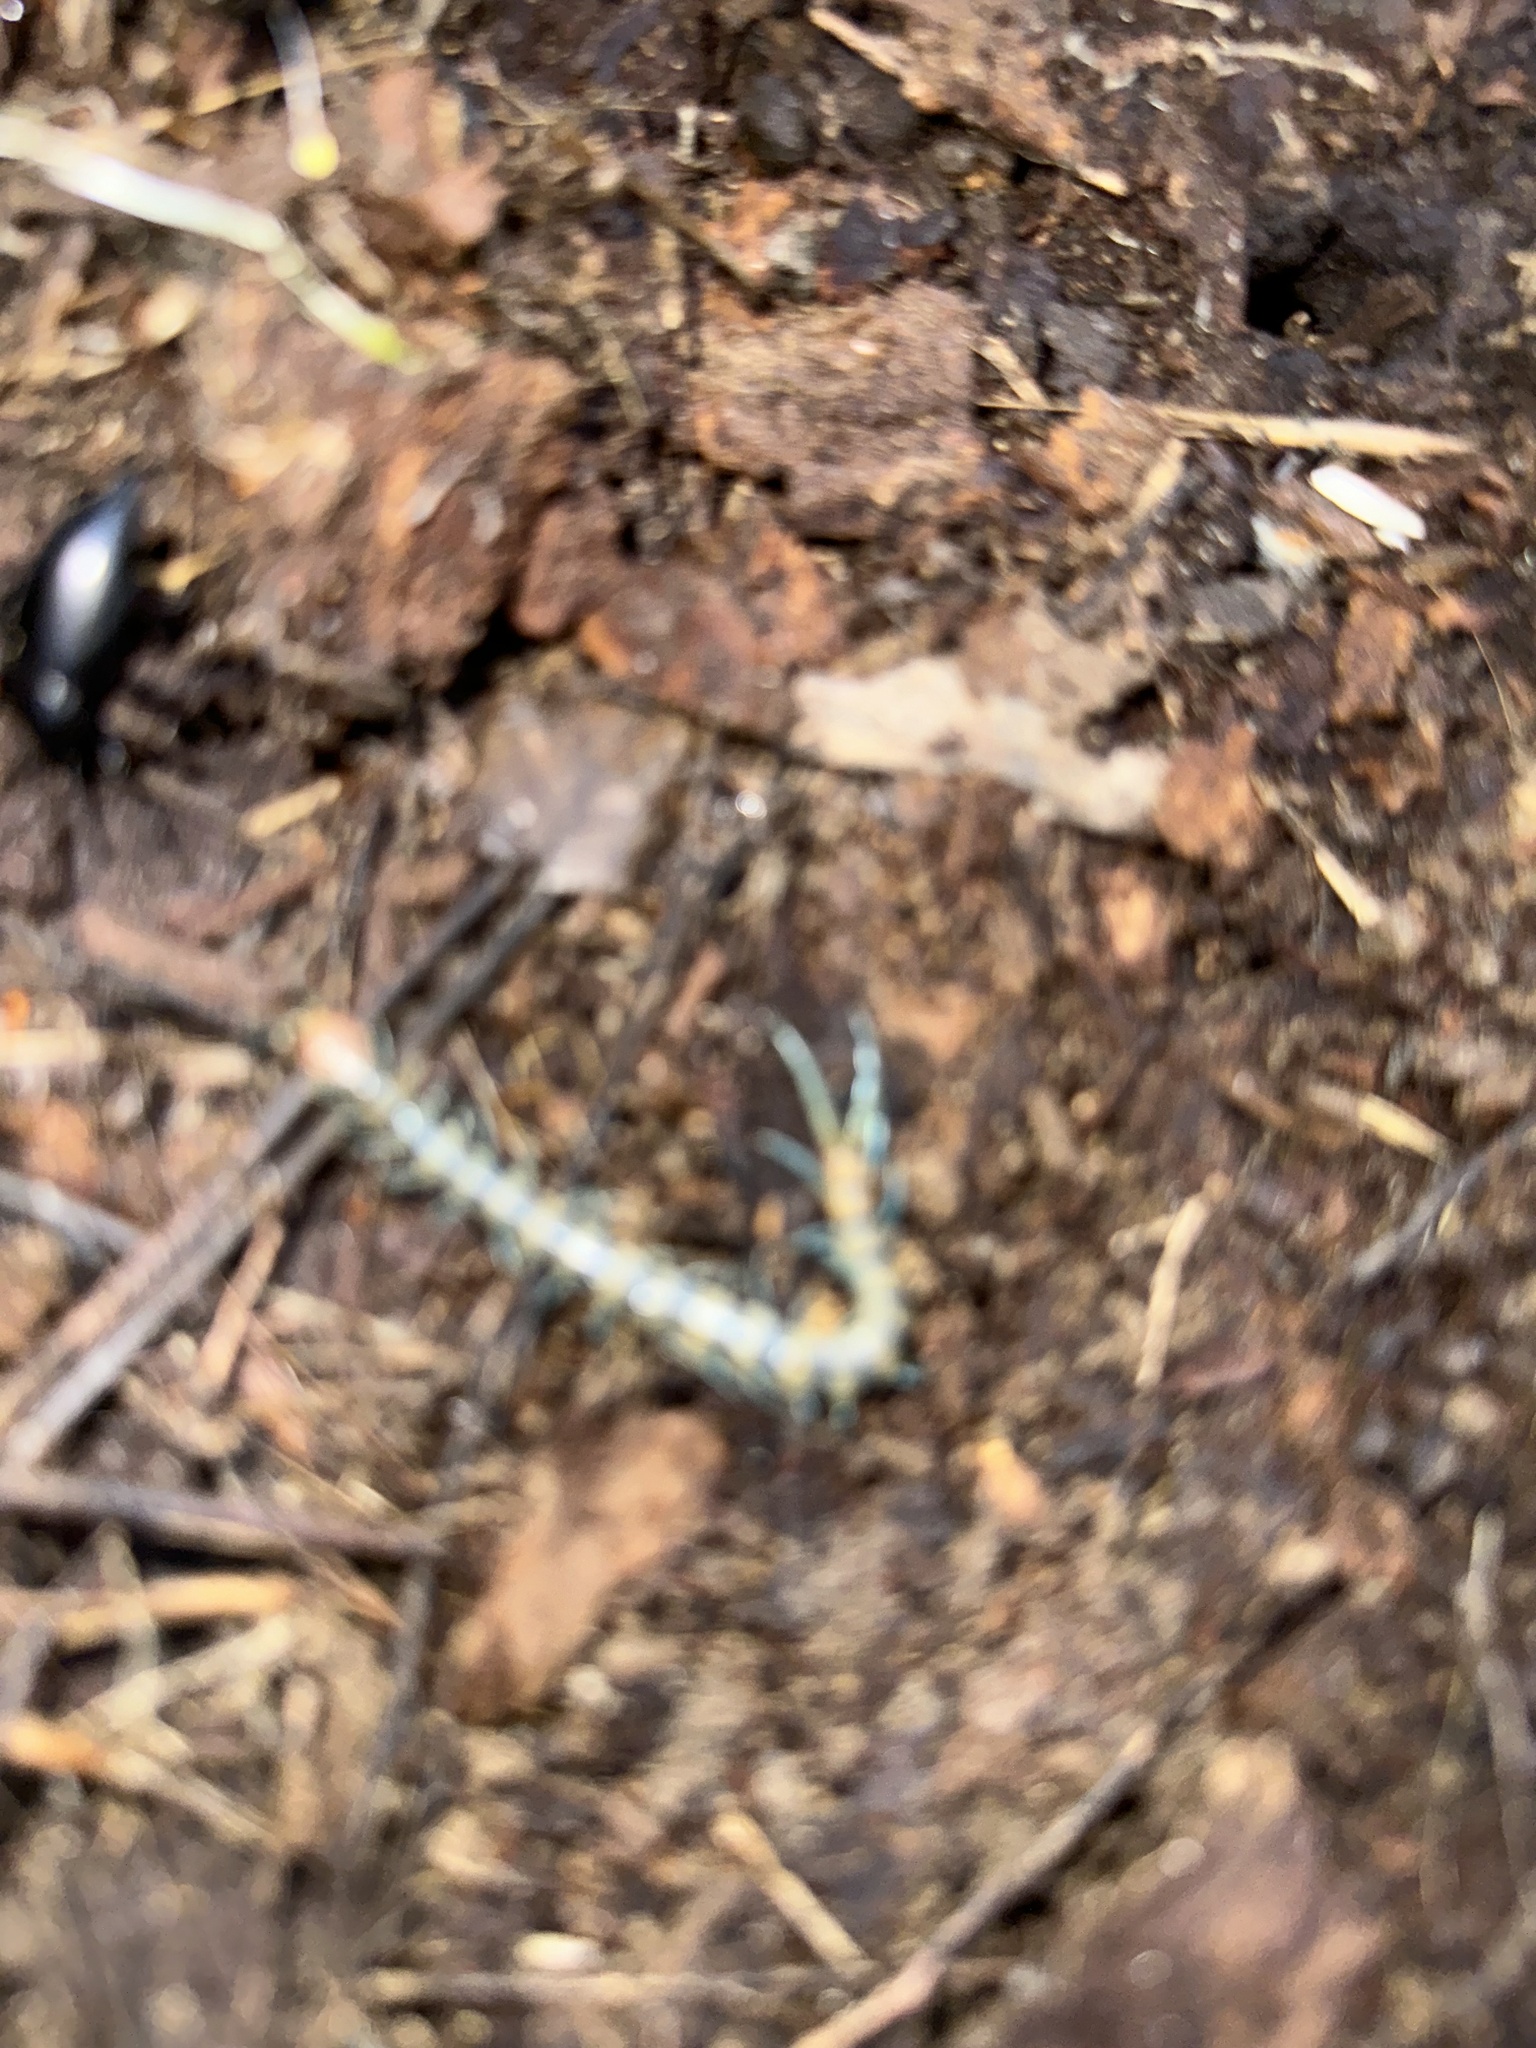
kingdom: Animalia
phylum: Arthropoda
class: Chilopoda
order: Scolopendromorpha
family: Scolopendridae
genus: Scolopendra
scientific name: Scolopendra polymorpha
